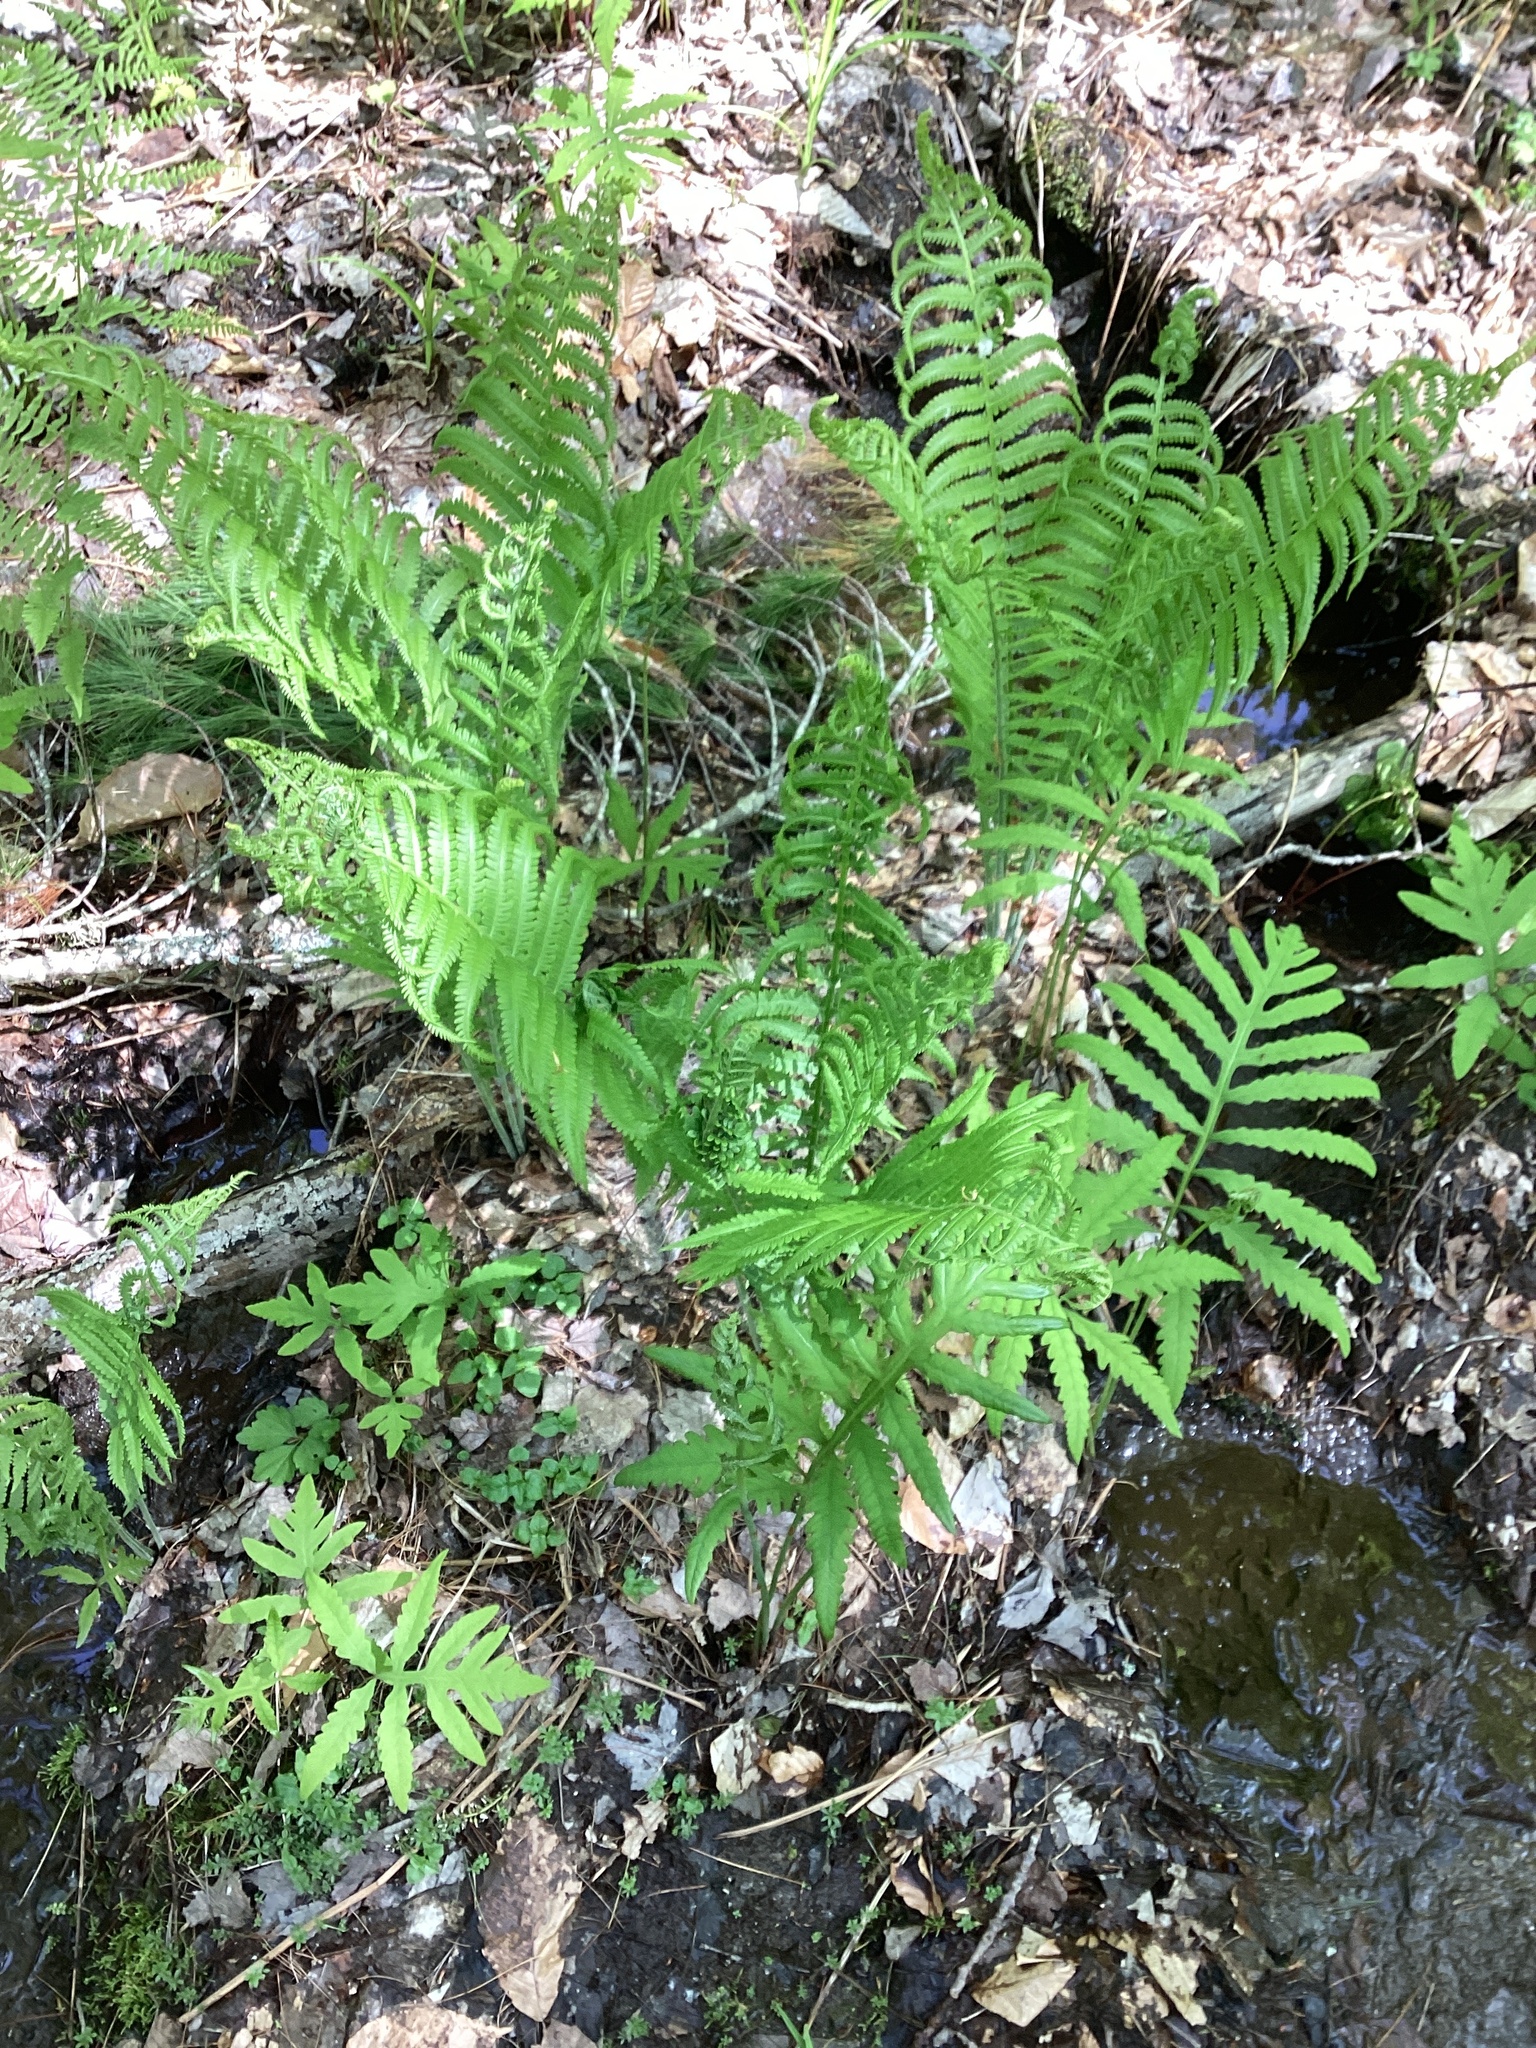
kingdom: Plantae
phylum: Tracheophyta
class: Polypodiopsida
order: Polypodiales
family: Onocleaceae
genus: Matteuccia
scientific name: Matteuccia struthiopteris
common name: Ostrich fern
